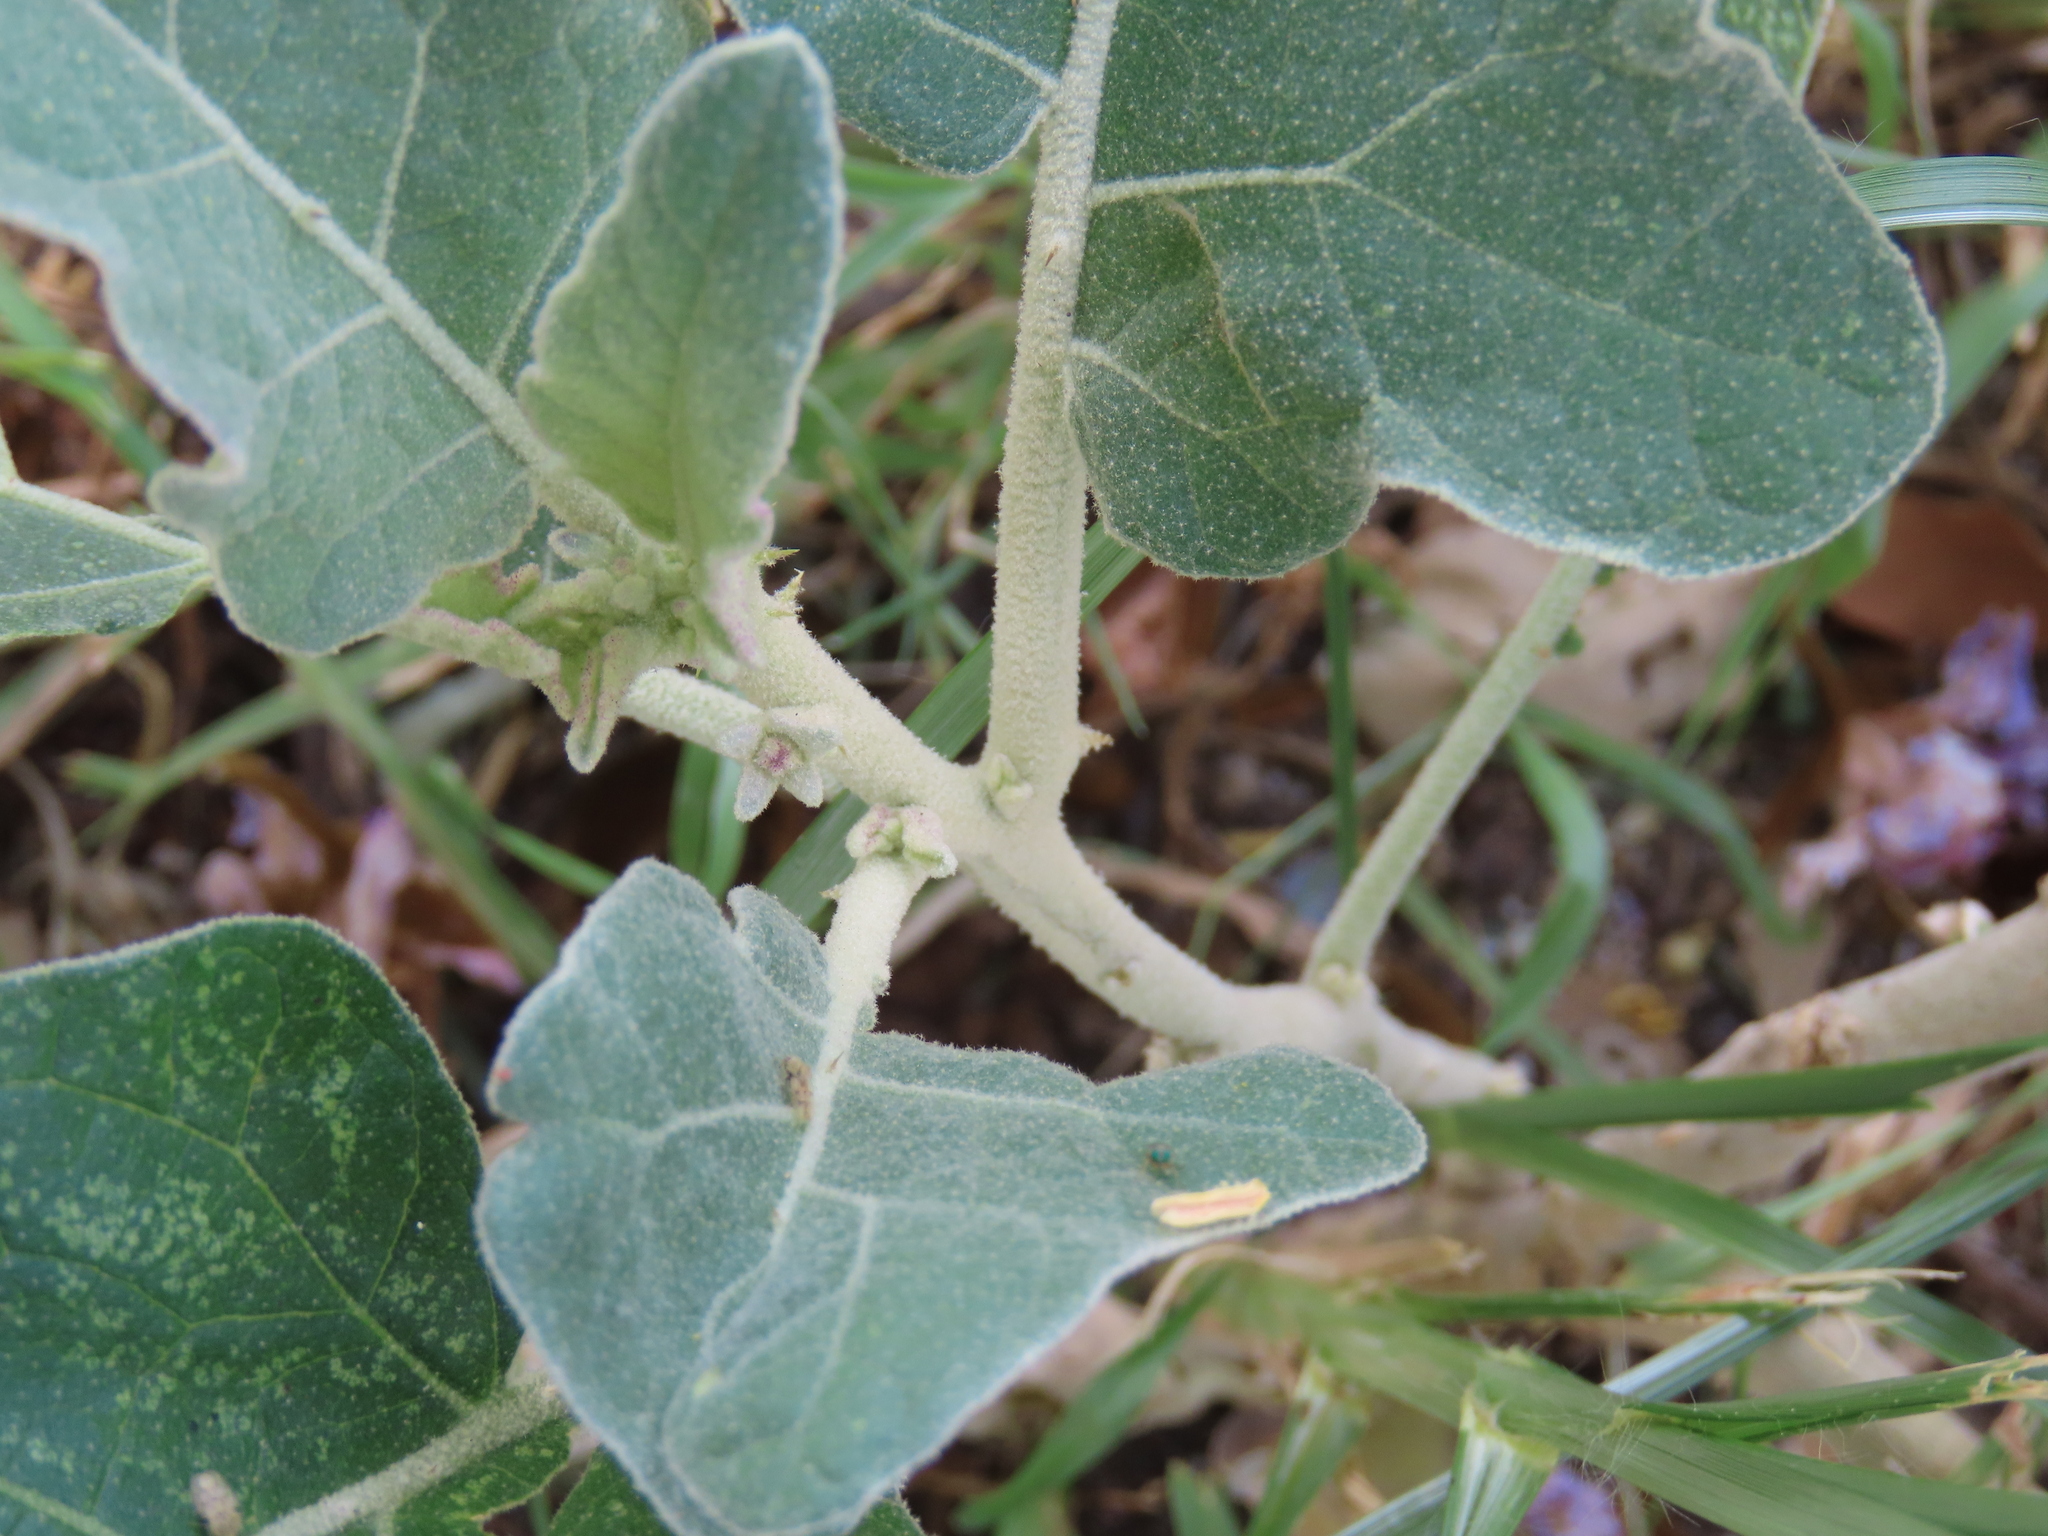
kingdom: Plantae
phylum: Tracheophyta
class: Magnoliopsida
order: Solanales
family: Solanaceae
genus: Solanum
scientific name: Solanum lichtensteinii
